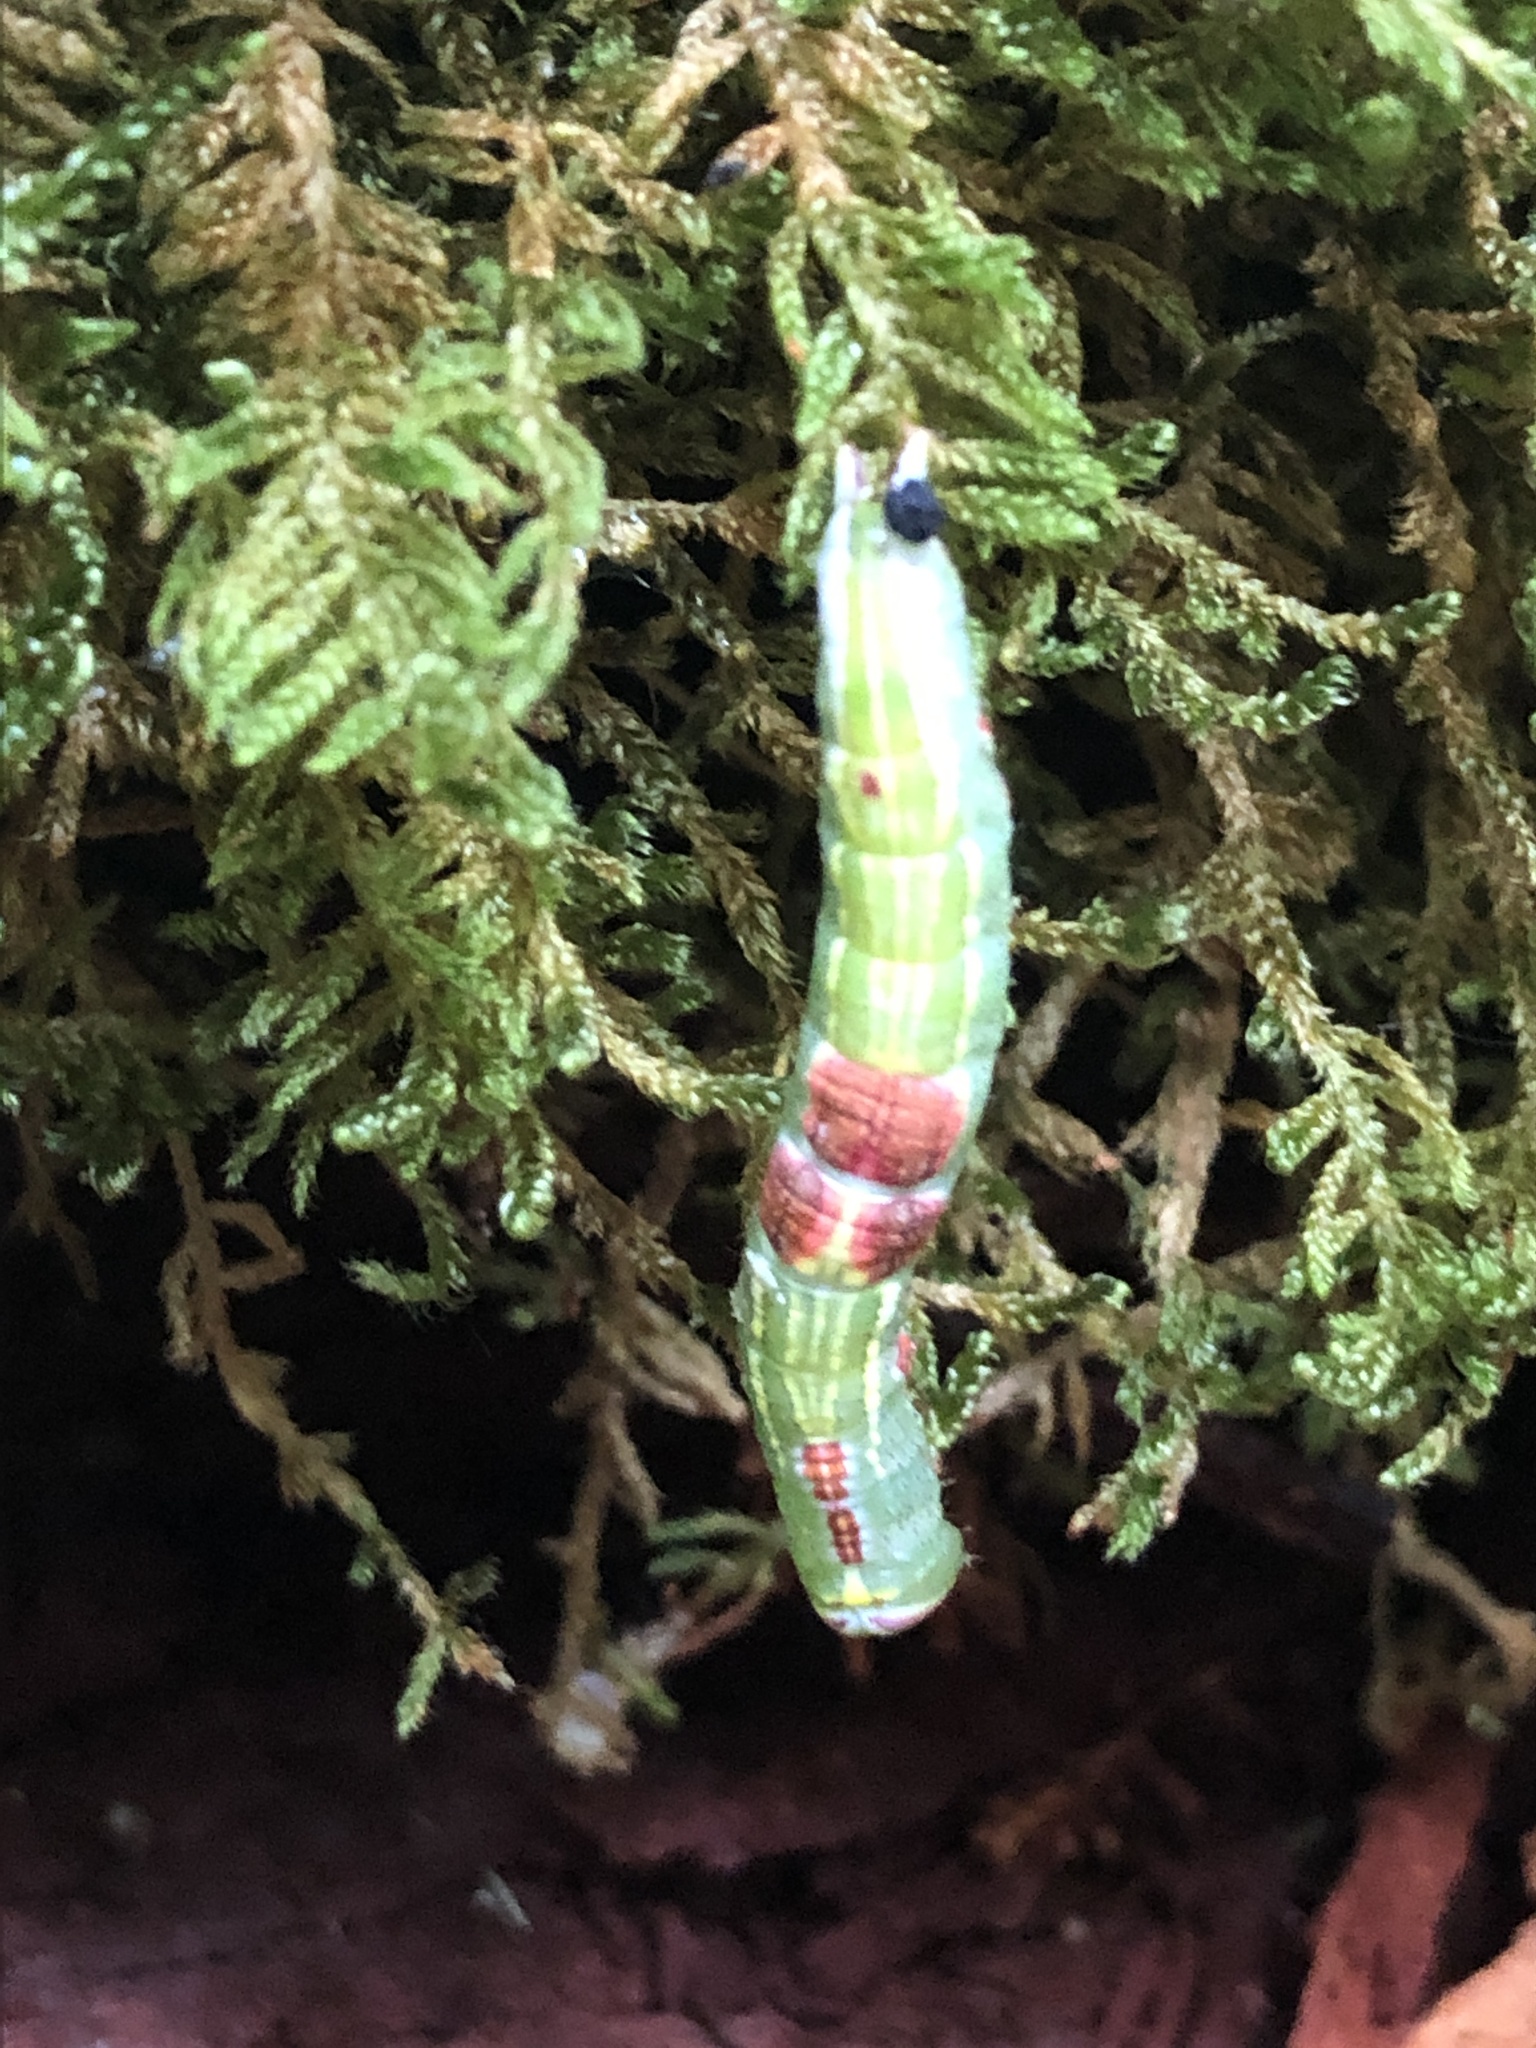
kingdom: Animalia
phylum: Arthropoda
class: Insecta
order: Lepidoptera
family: Notodontidae
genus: Disphragis
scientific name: Disphragis Cecrita guttivitta
